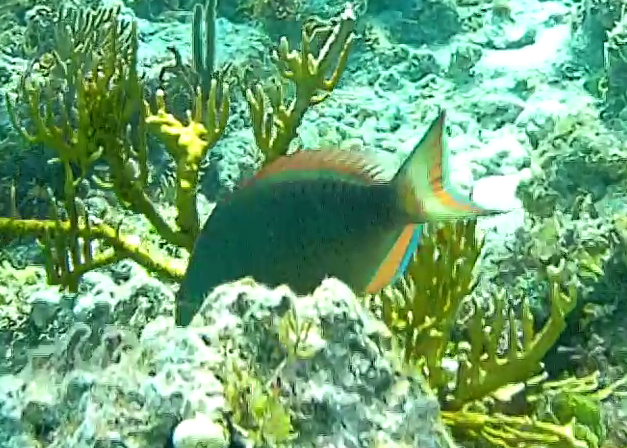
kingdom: Animalia
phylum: Chordata
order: Perciformes
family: Scaridae
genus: Sparisoma
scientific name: Sparisoma viride
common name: Stoplight parrotfish
